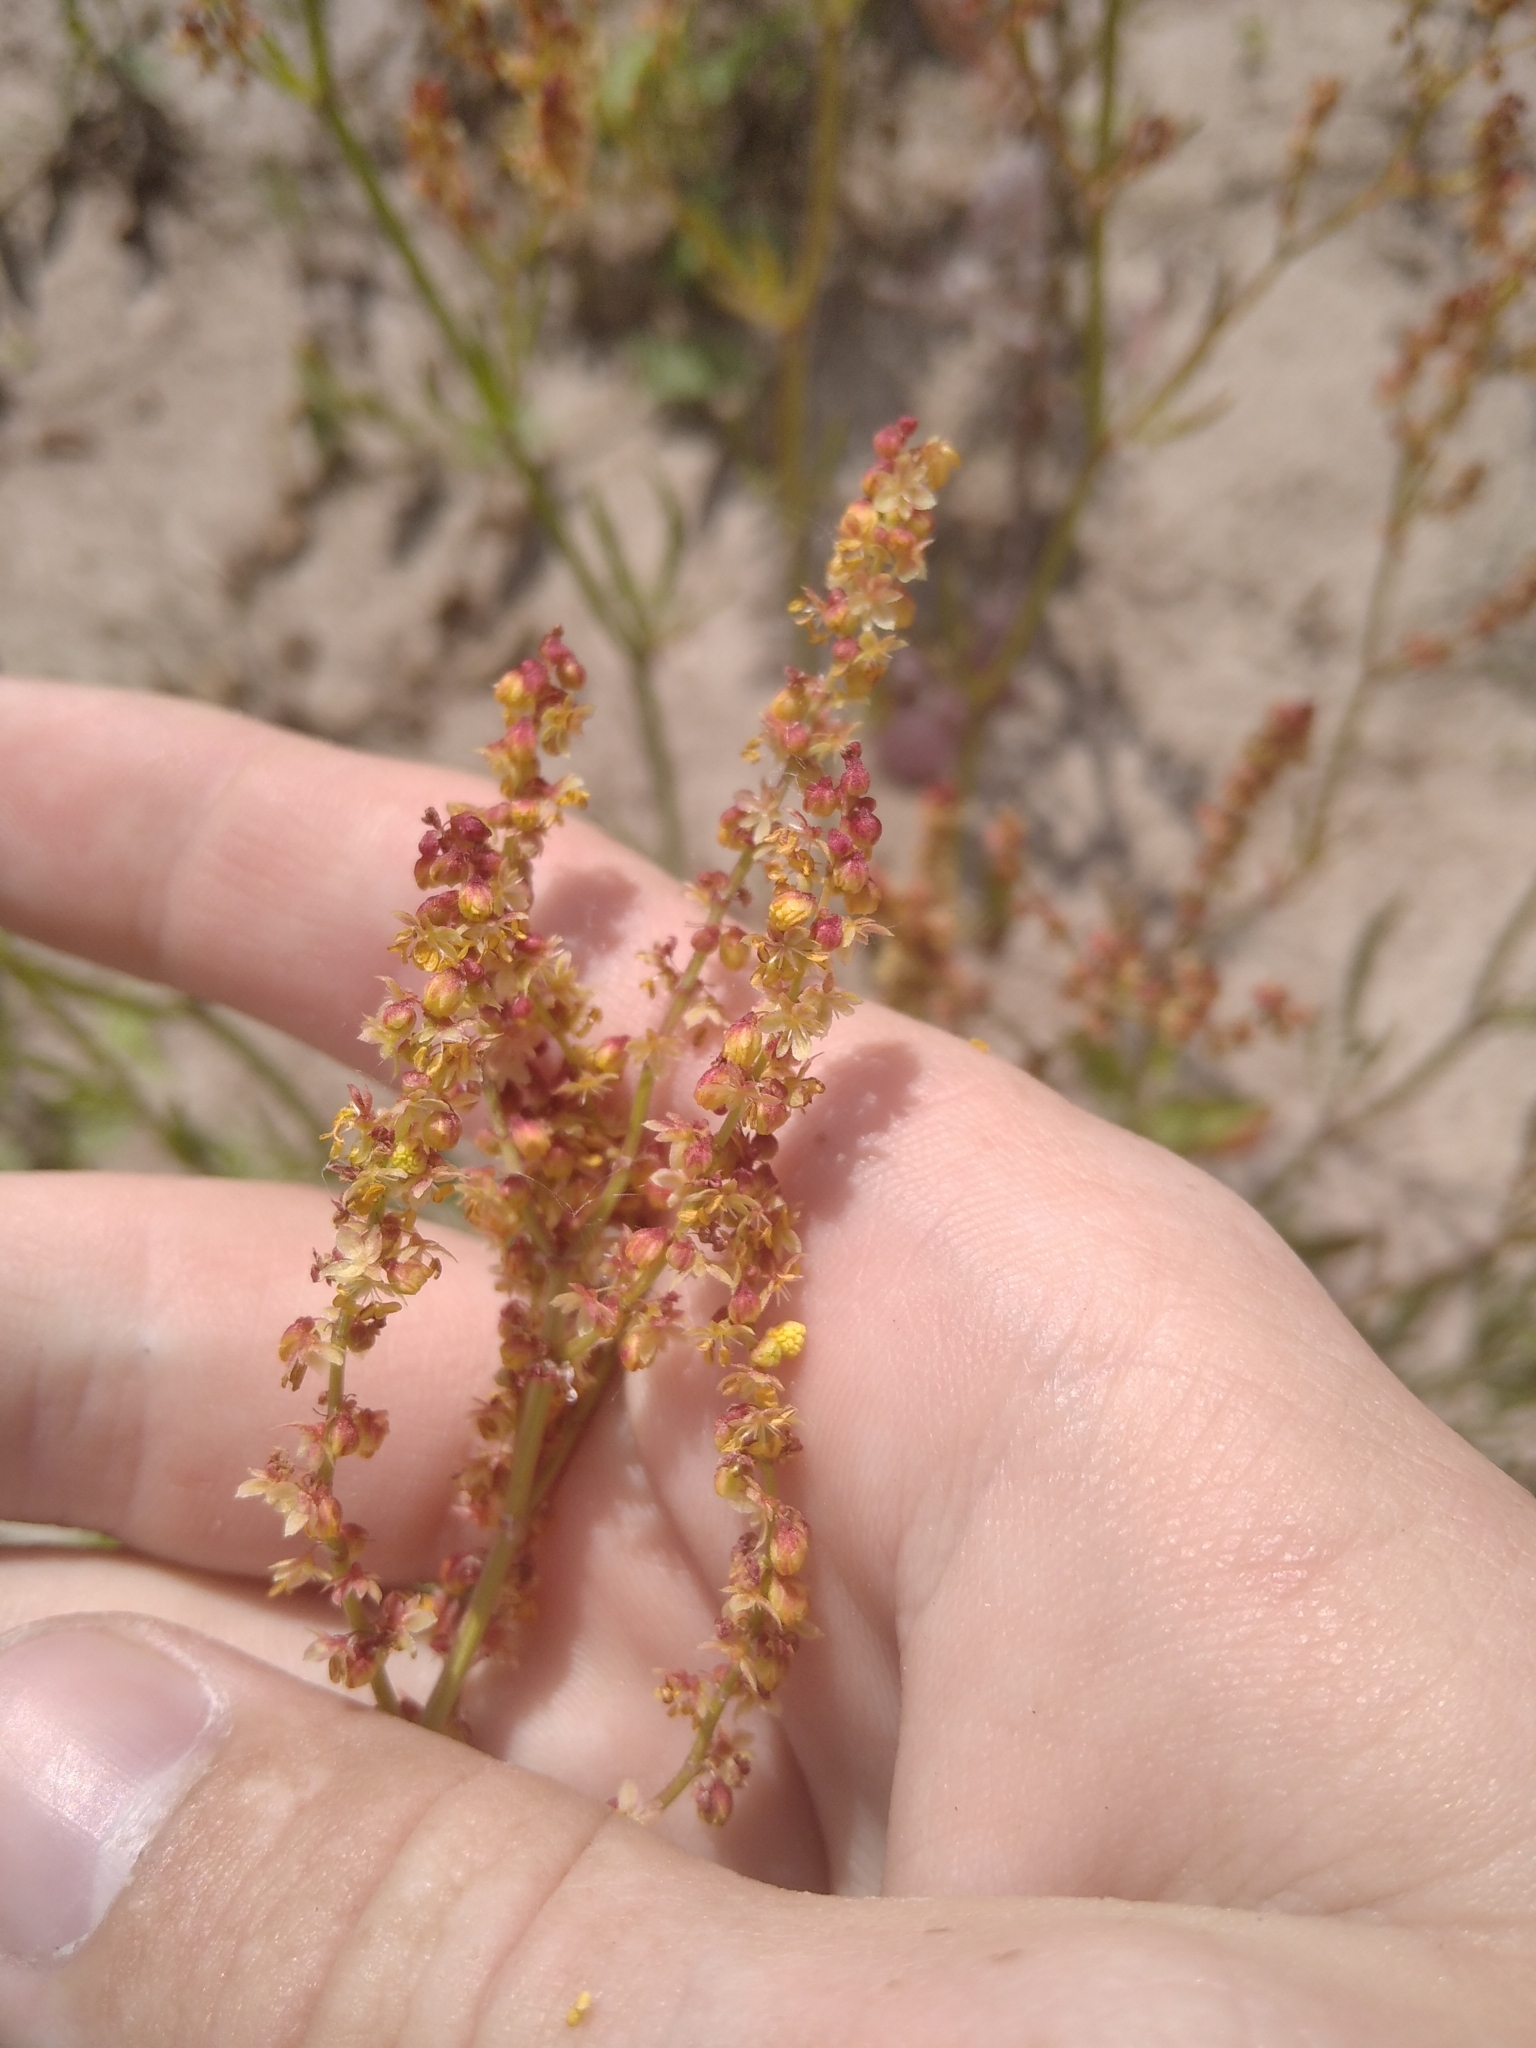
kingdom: Plantae
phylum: Tracheophyta
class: Magnoliopsida
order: Caryophyllales
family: Polygonaceae
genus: Rumex
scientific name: Rumex acetosella
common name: Common sheep sorrel
